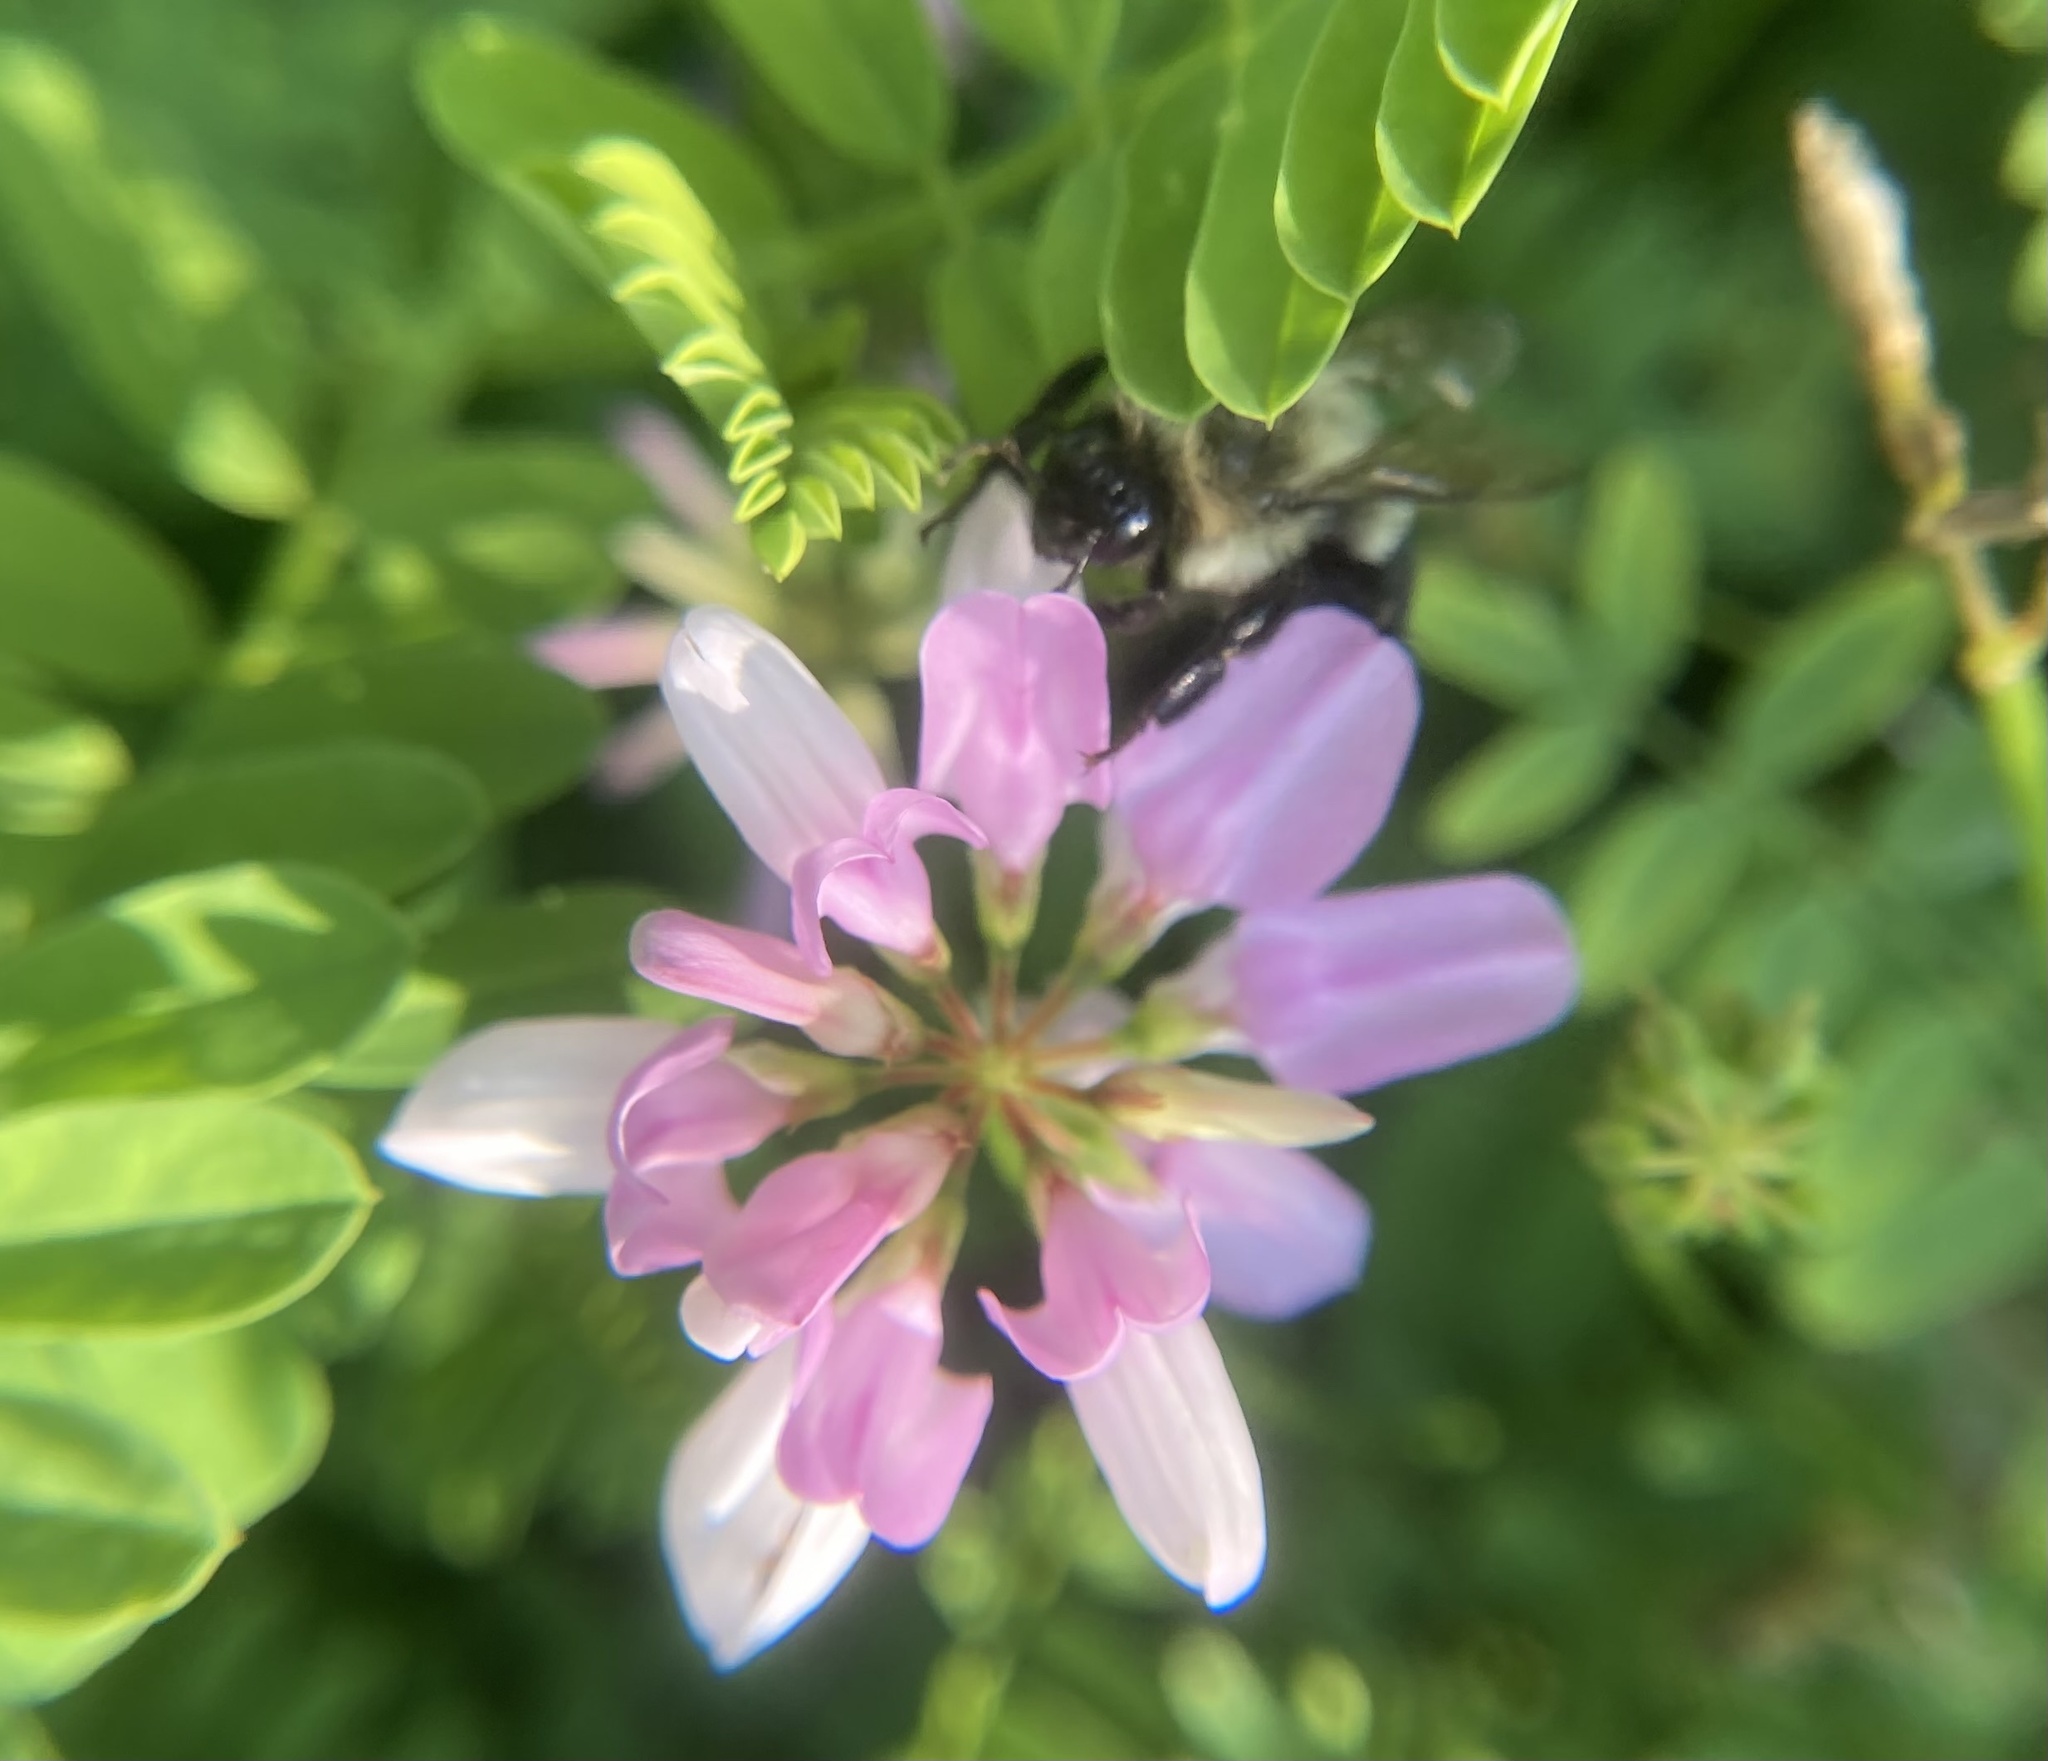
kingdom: Animalia
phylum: Arthropoda
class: Insecta
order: Hymenoptera
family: Apidae
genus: Bombus
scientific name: Bombus impatiens
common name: Common eastern bumble bee
